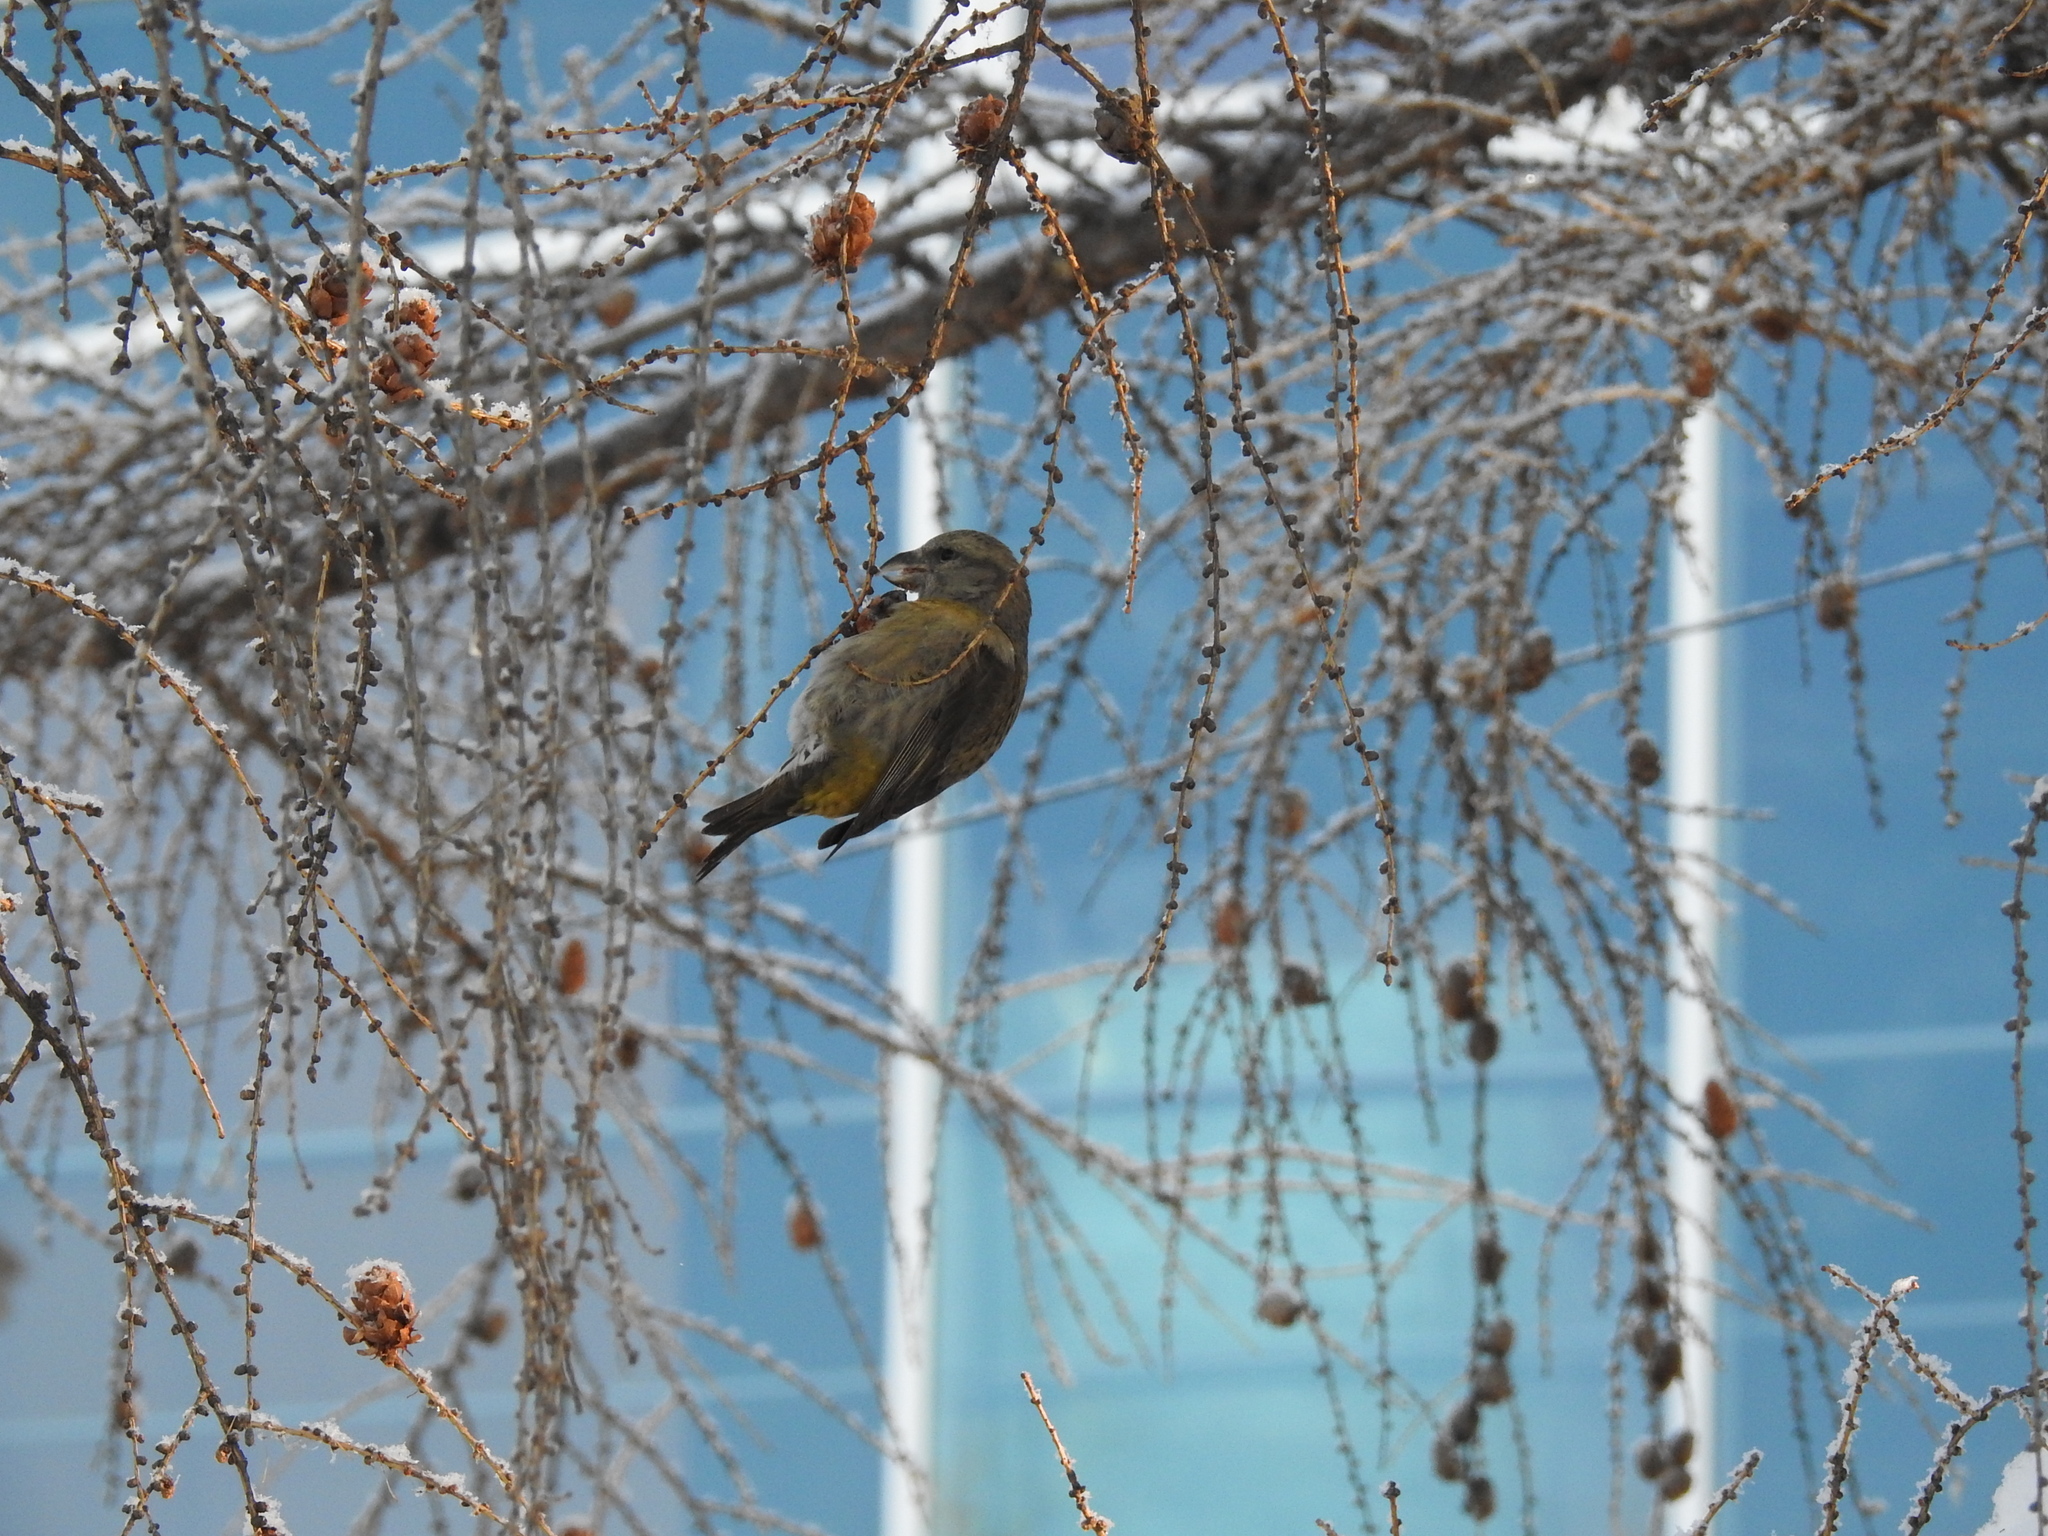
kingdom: Animalia
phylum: Chordata
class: Aves
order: Passeriformes
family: Fringillidae
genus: Loxia
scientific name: Loxia curvirostra
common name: Red crossbill
